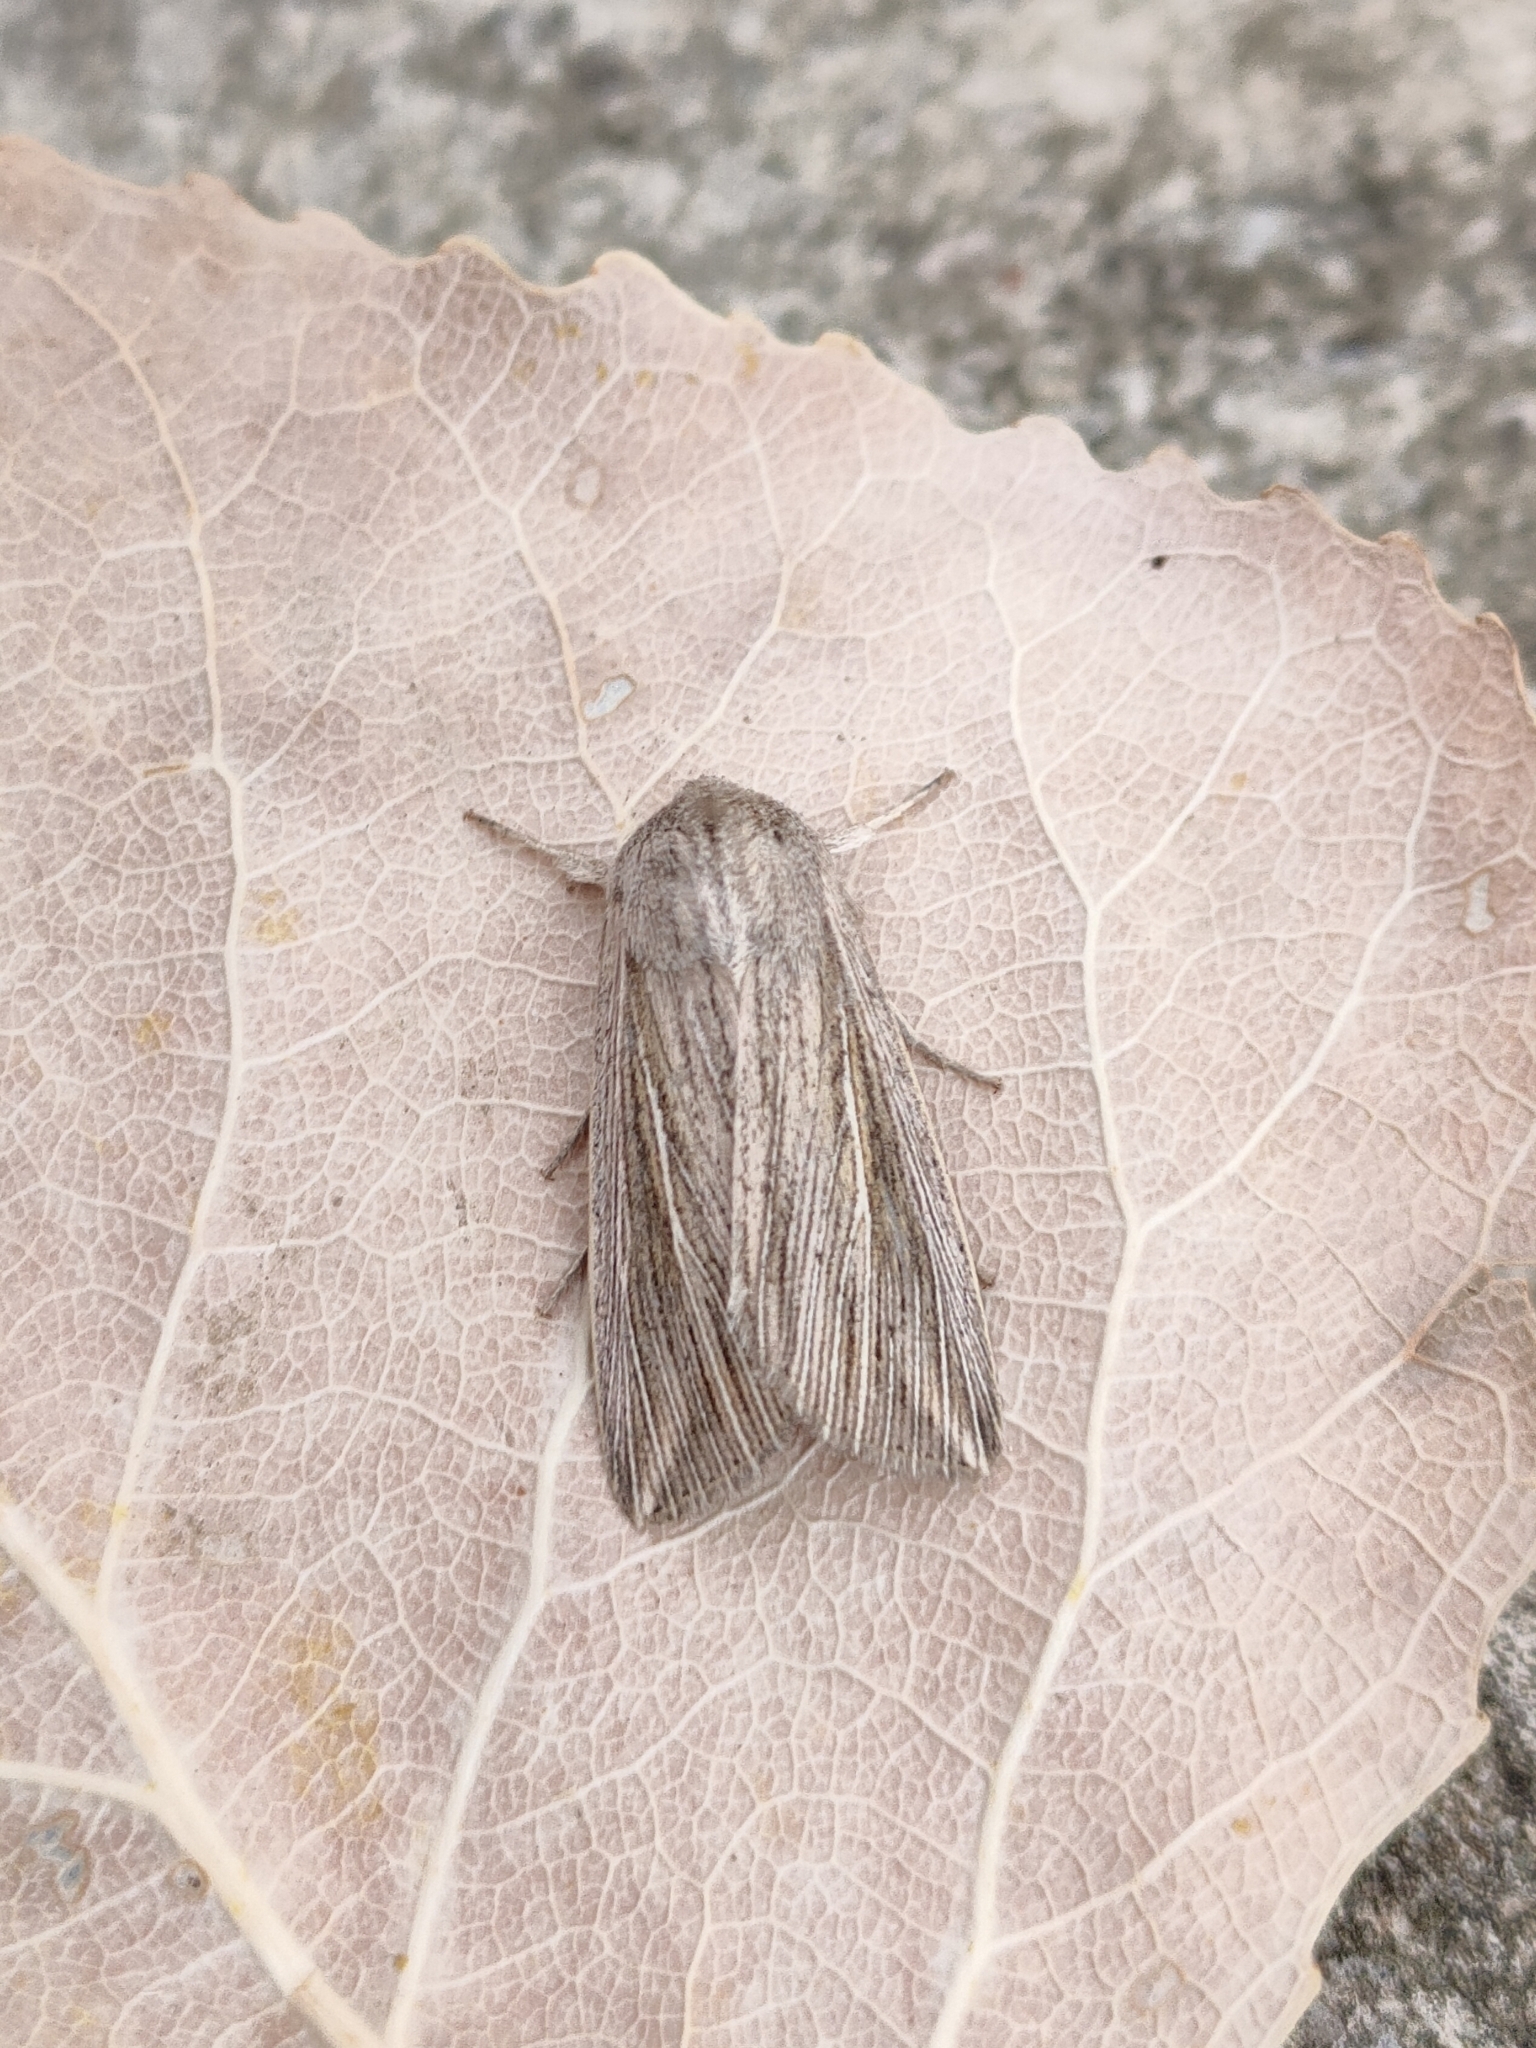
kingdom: Animalia
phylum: Arthropoda
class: Insecta
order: Lepidoptera
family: Noctuidae
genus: Mythimna
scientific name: Mythimna riparia
